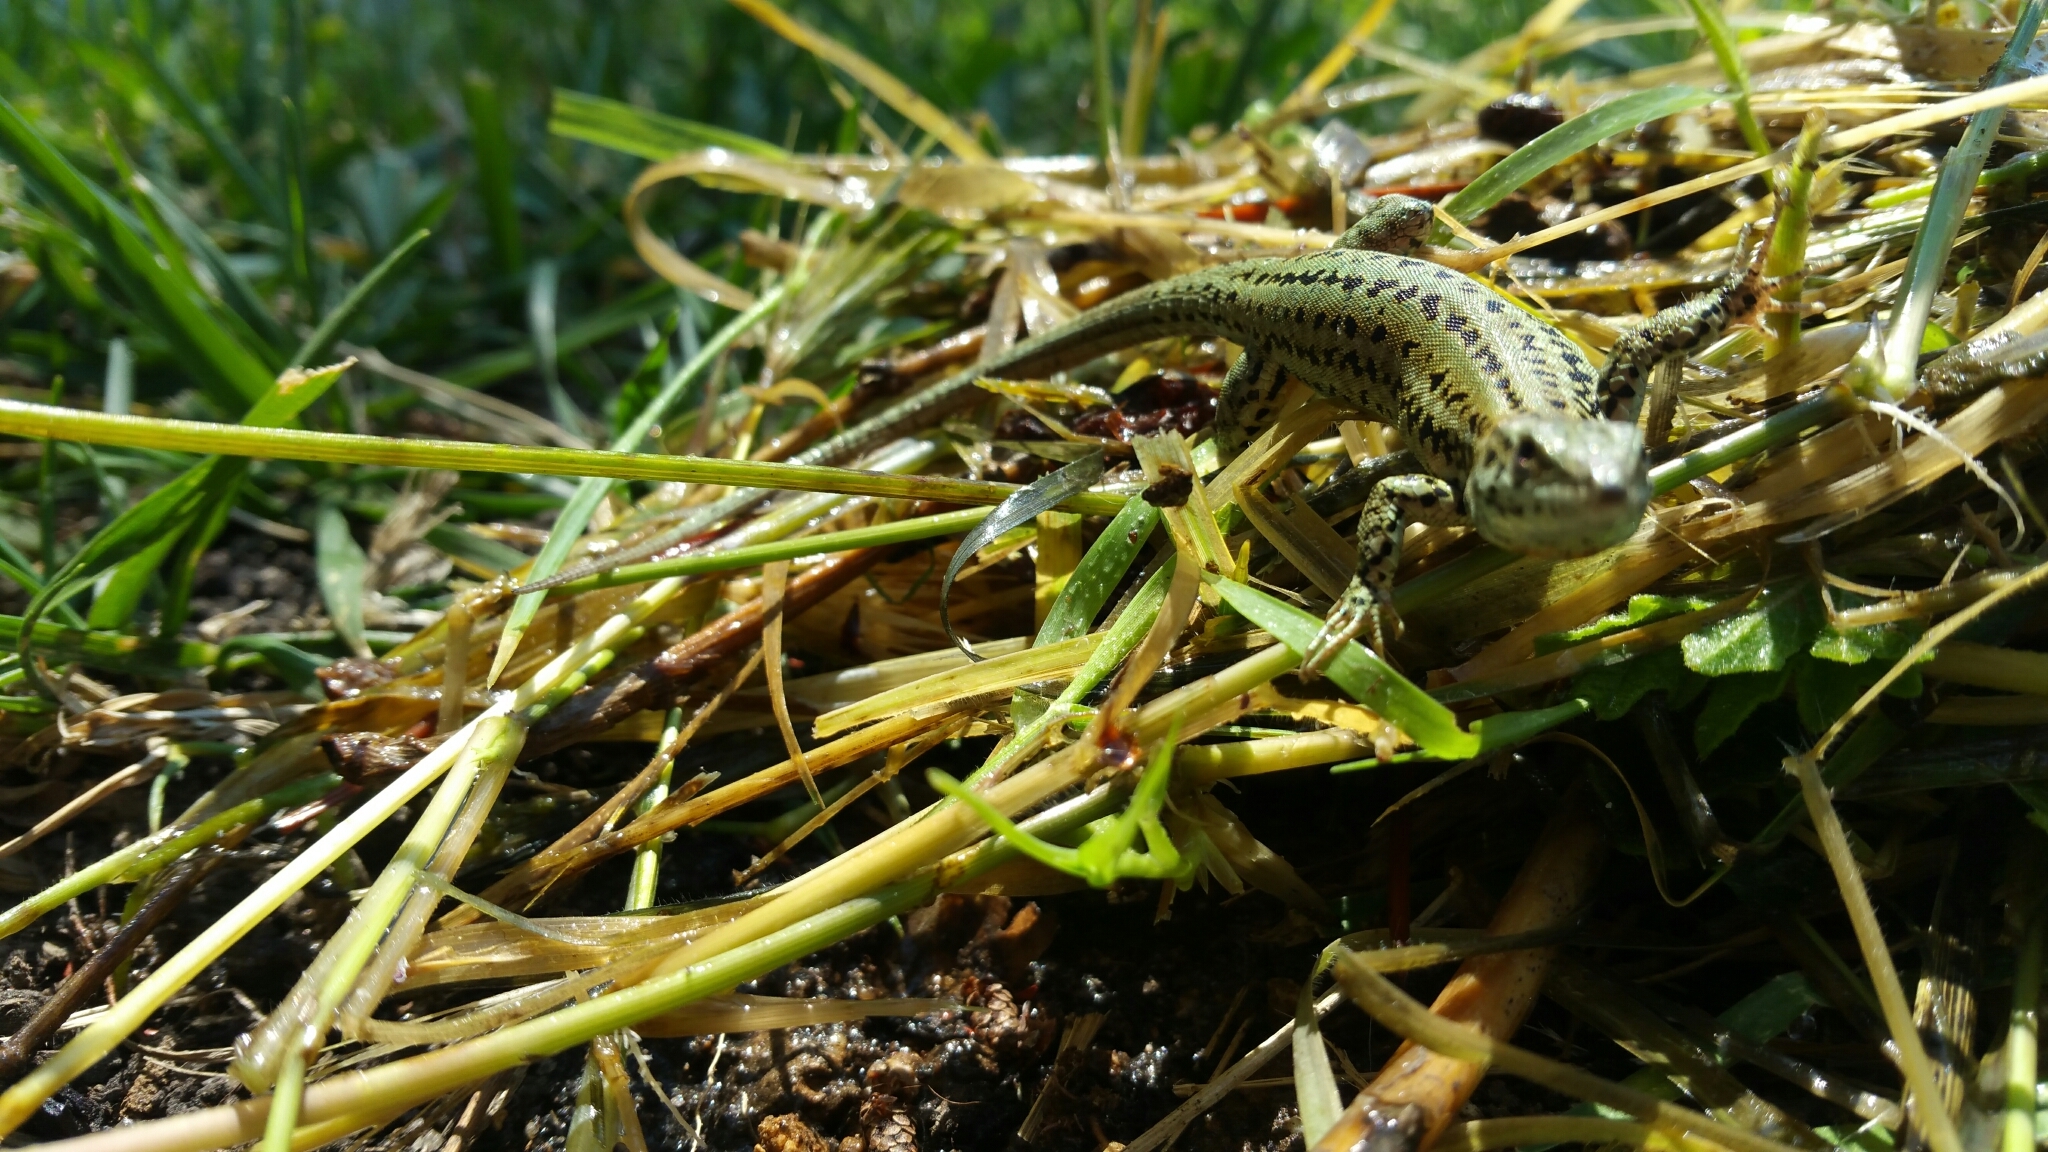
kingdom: Animalia
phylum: Chordata
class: Squamata
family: Lacertidae
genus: Podarcis
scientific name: Podarcis liolepis
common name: Catalonian wall lizard
